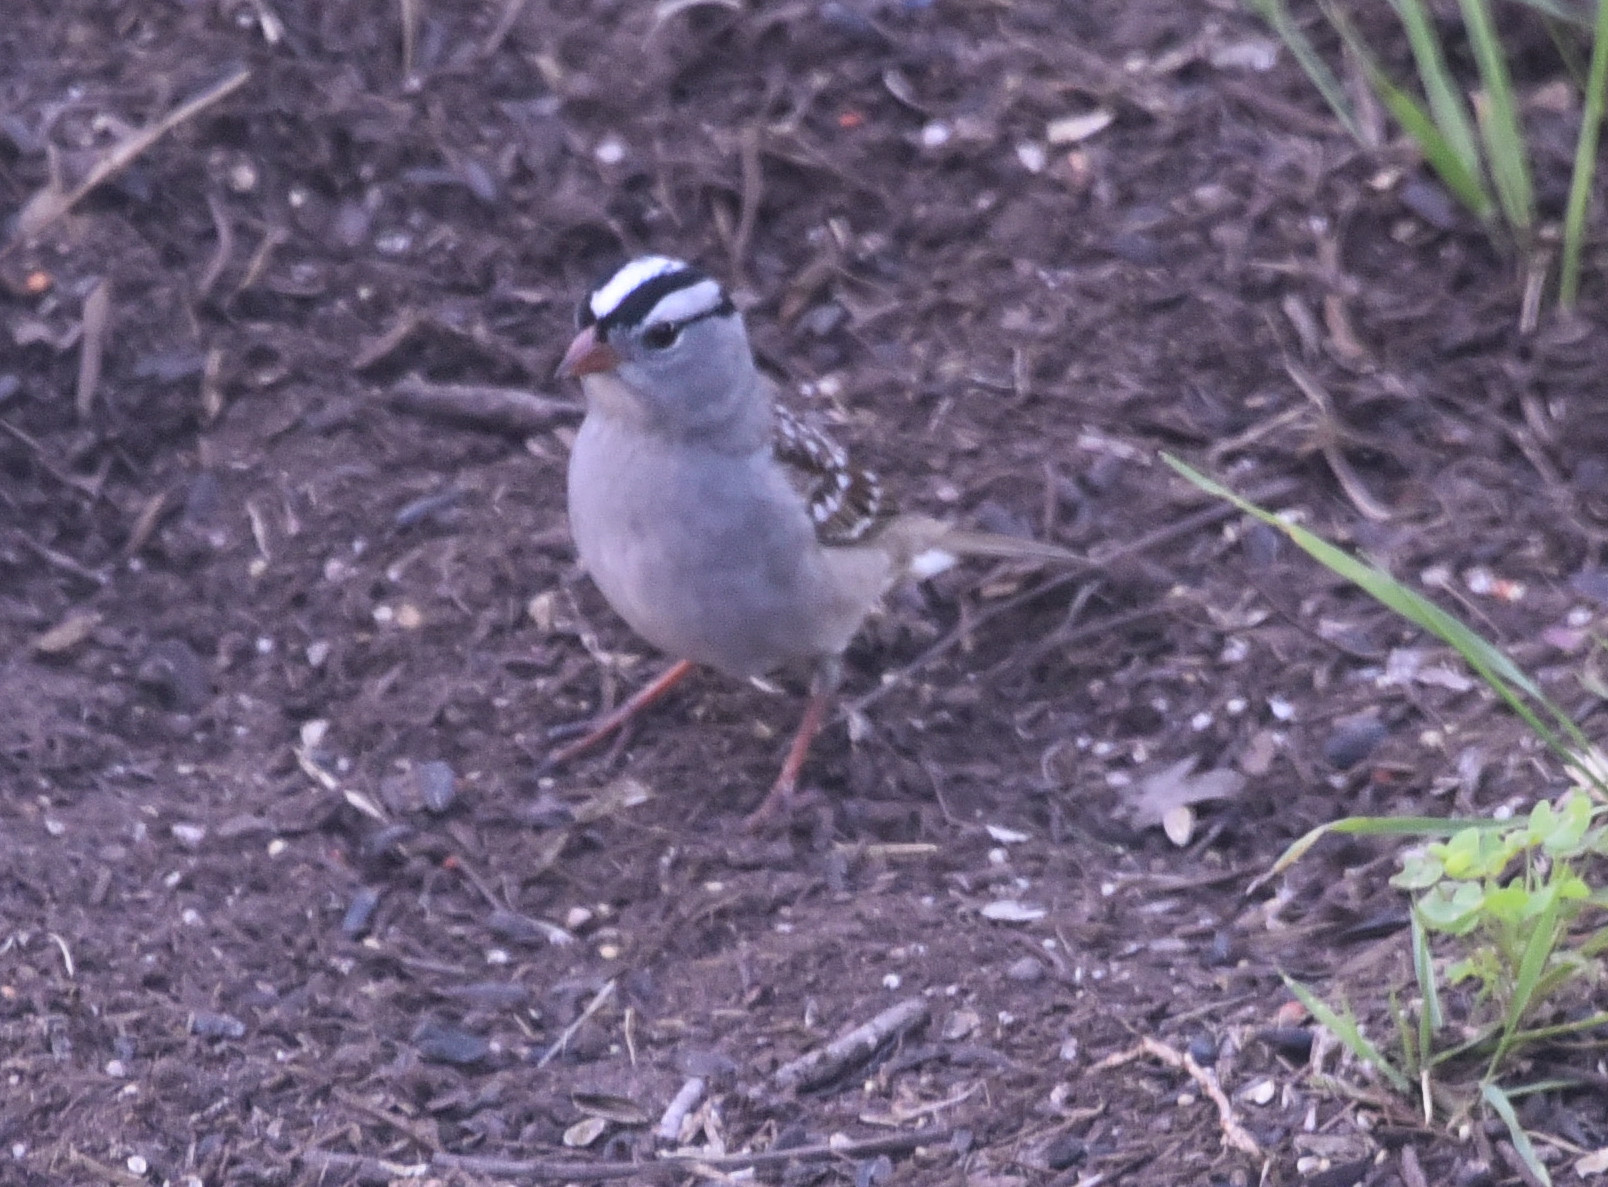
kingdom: Animalia
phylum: Chordata
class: Aves
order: Passeriformes
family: Passerellidae
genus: Zonotrichia
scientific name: Zonotrichia leucophrys
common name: White-crowned sparrow
